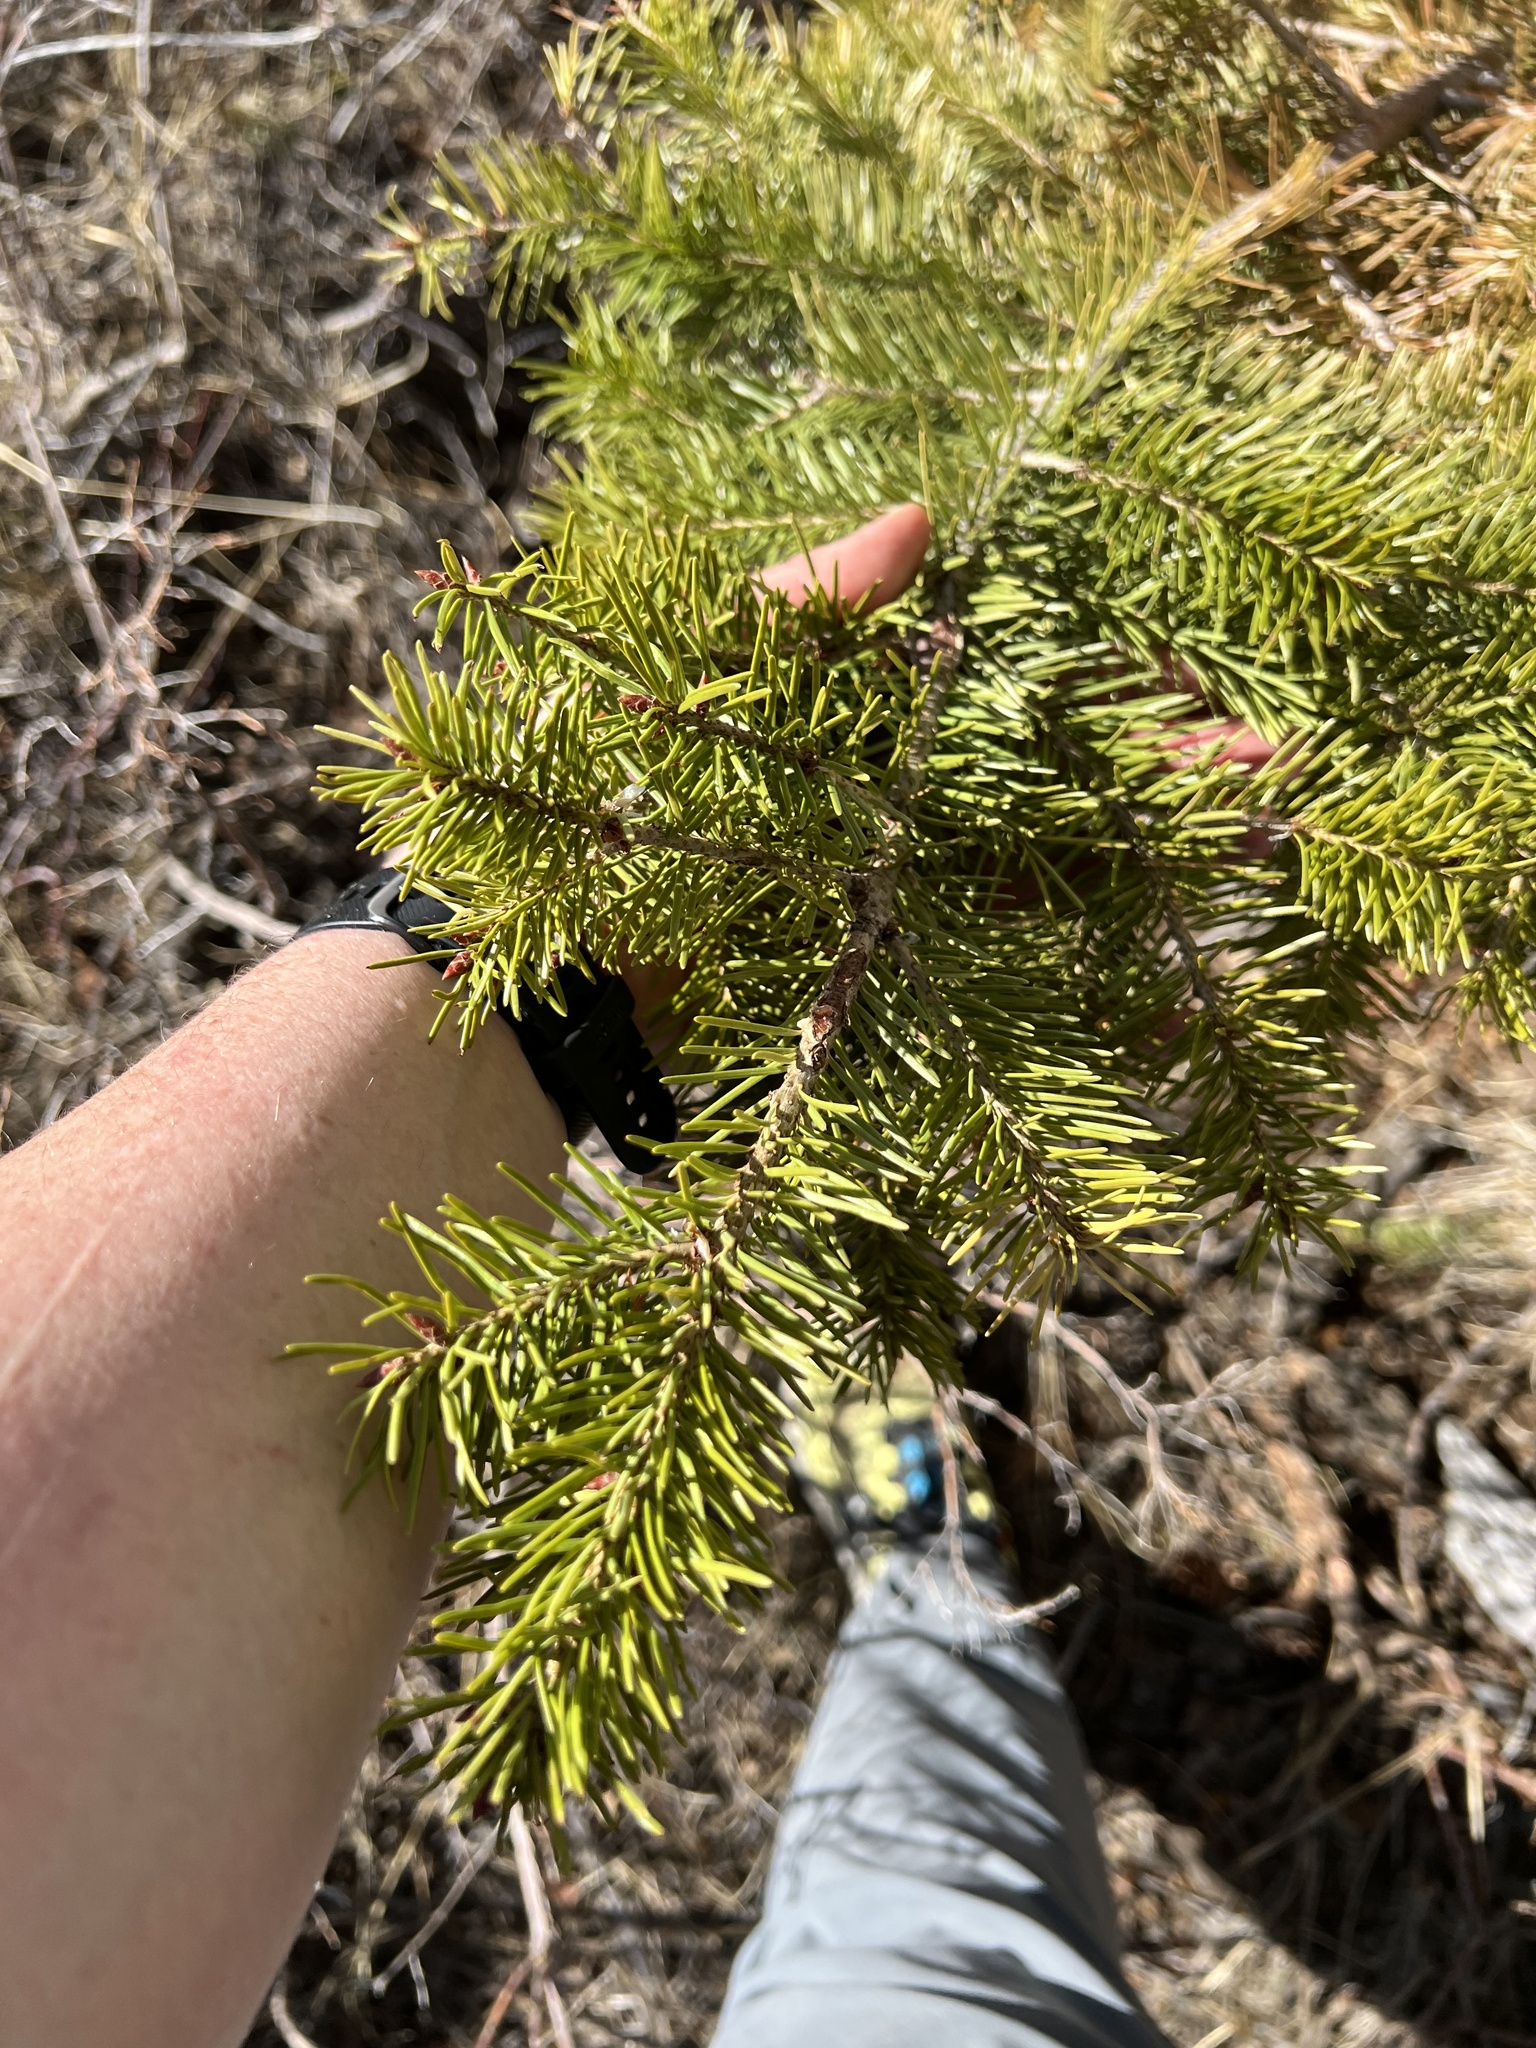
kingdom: Plantae
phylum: Tracheophyta
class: Pinopsida
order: Pinales
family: Pinaceae
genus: Pseudotsuga
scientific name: Pseudotsuga menziesii
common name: Douglas fir
